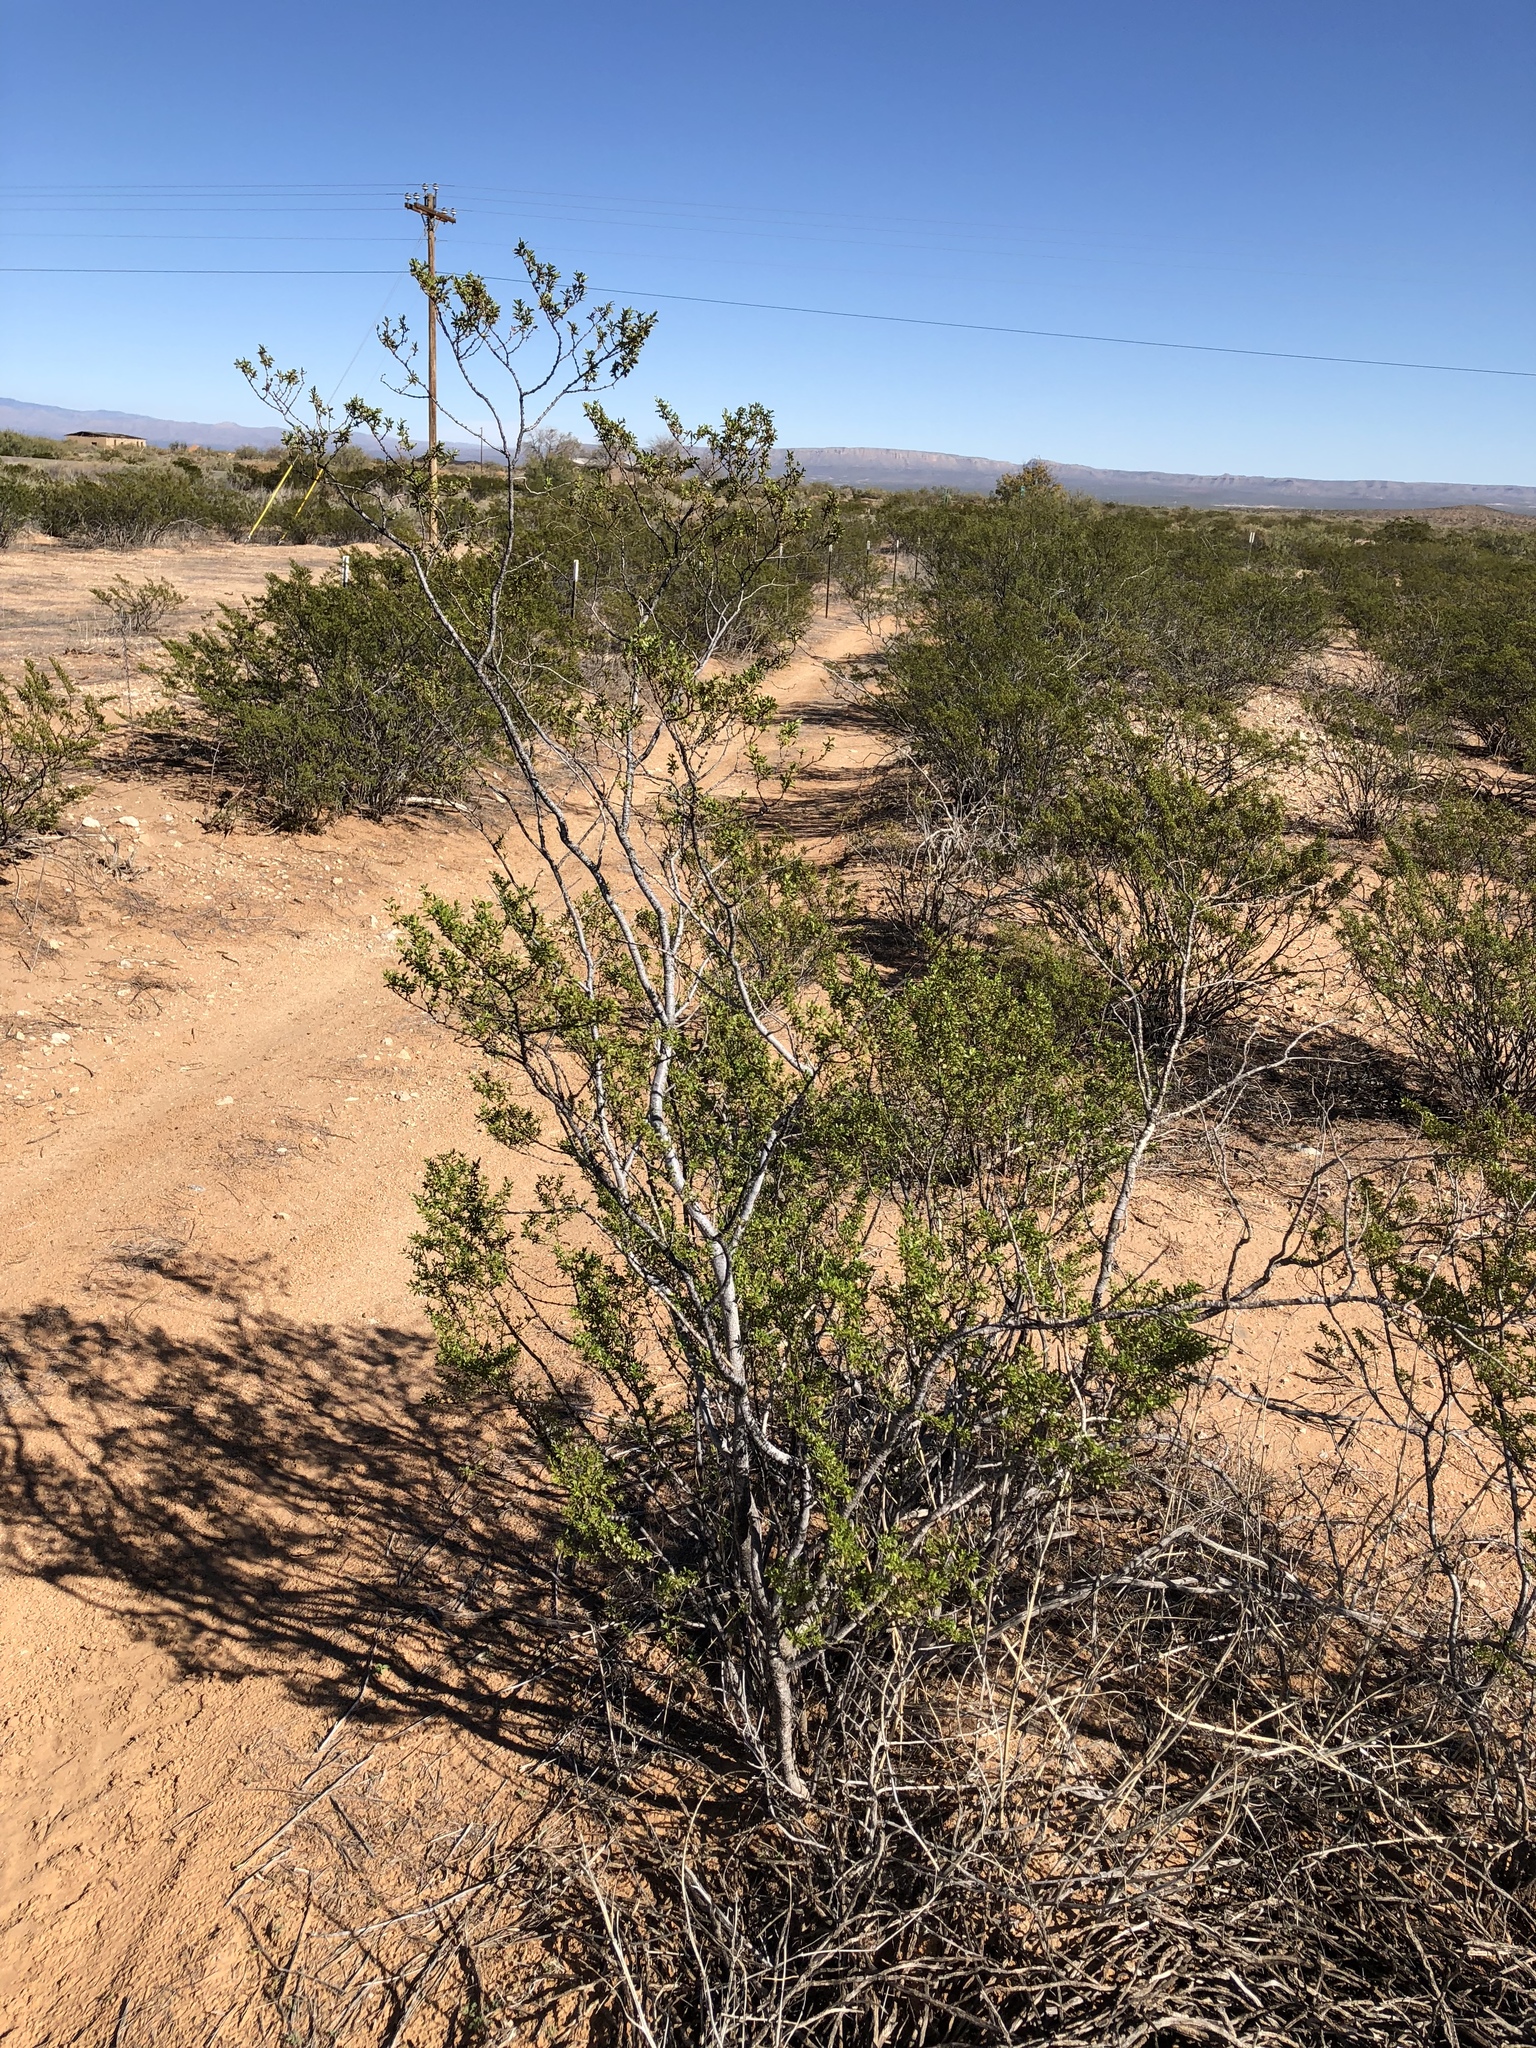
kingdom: Plantae
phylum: Tracheophyta
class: Magnoliopsida
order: Zygophyllales
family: Zygophyllaceae
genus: Larrea
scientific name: Larrea tridentata
